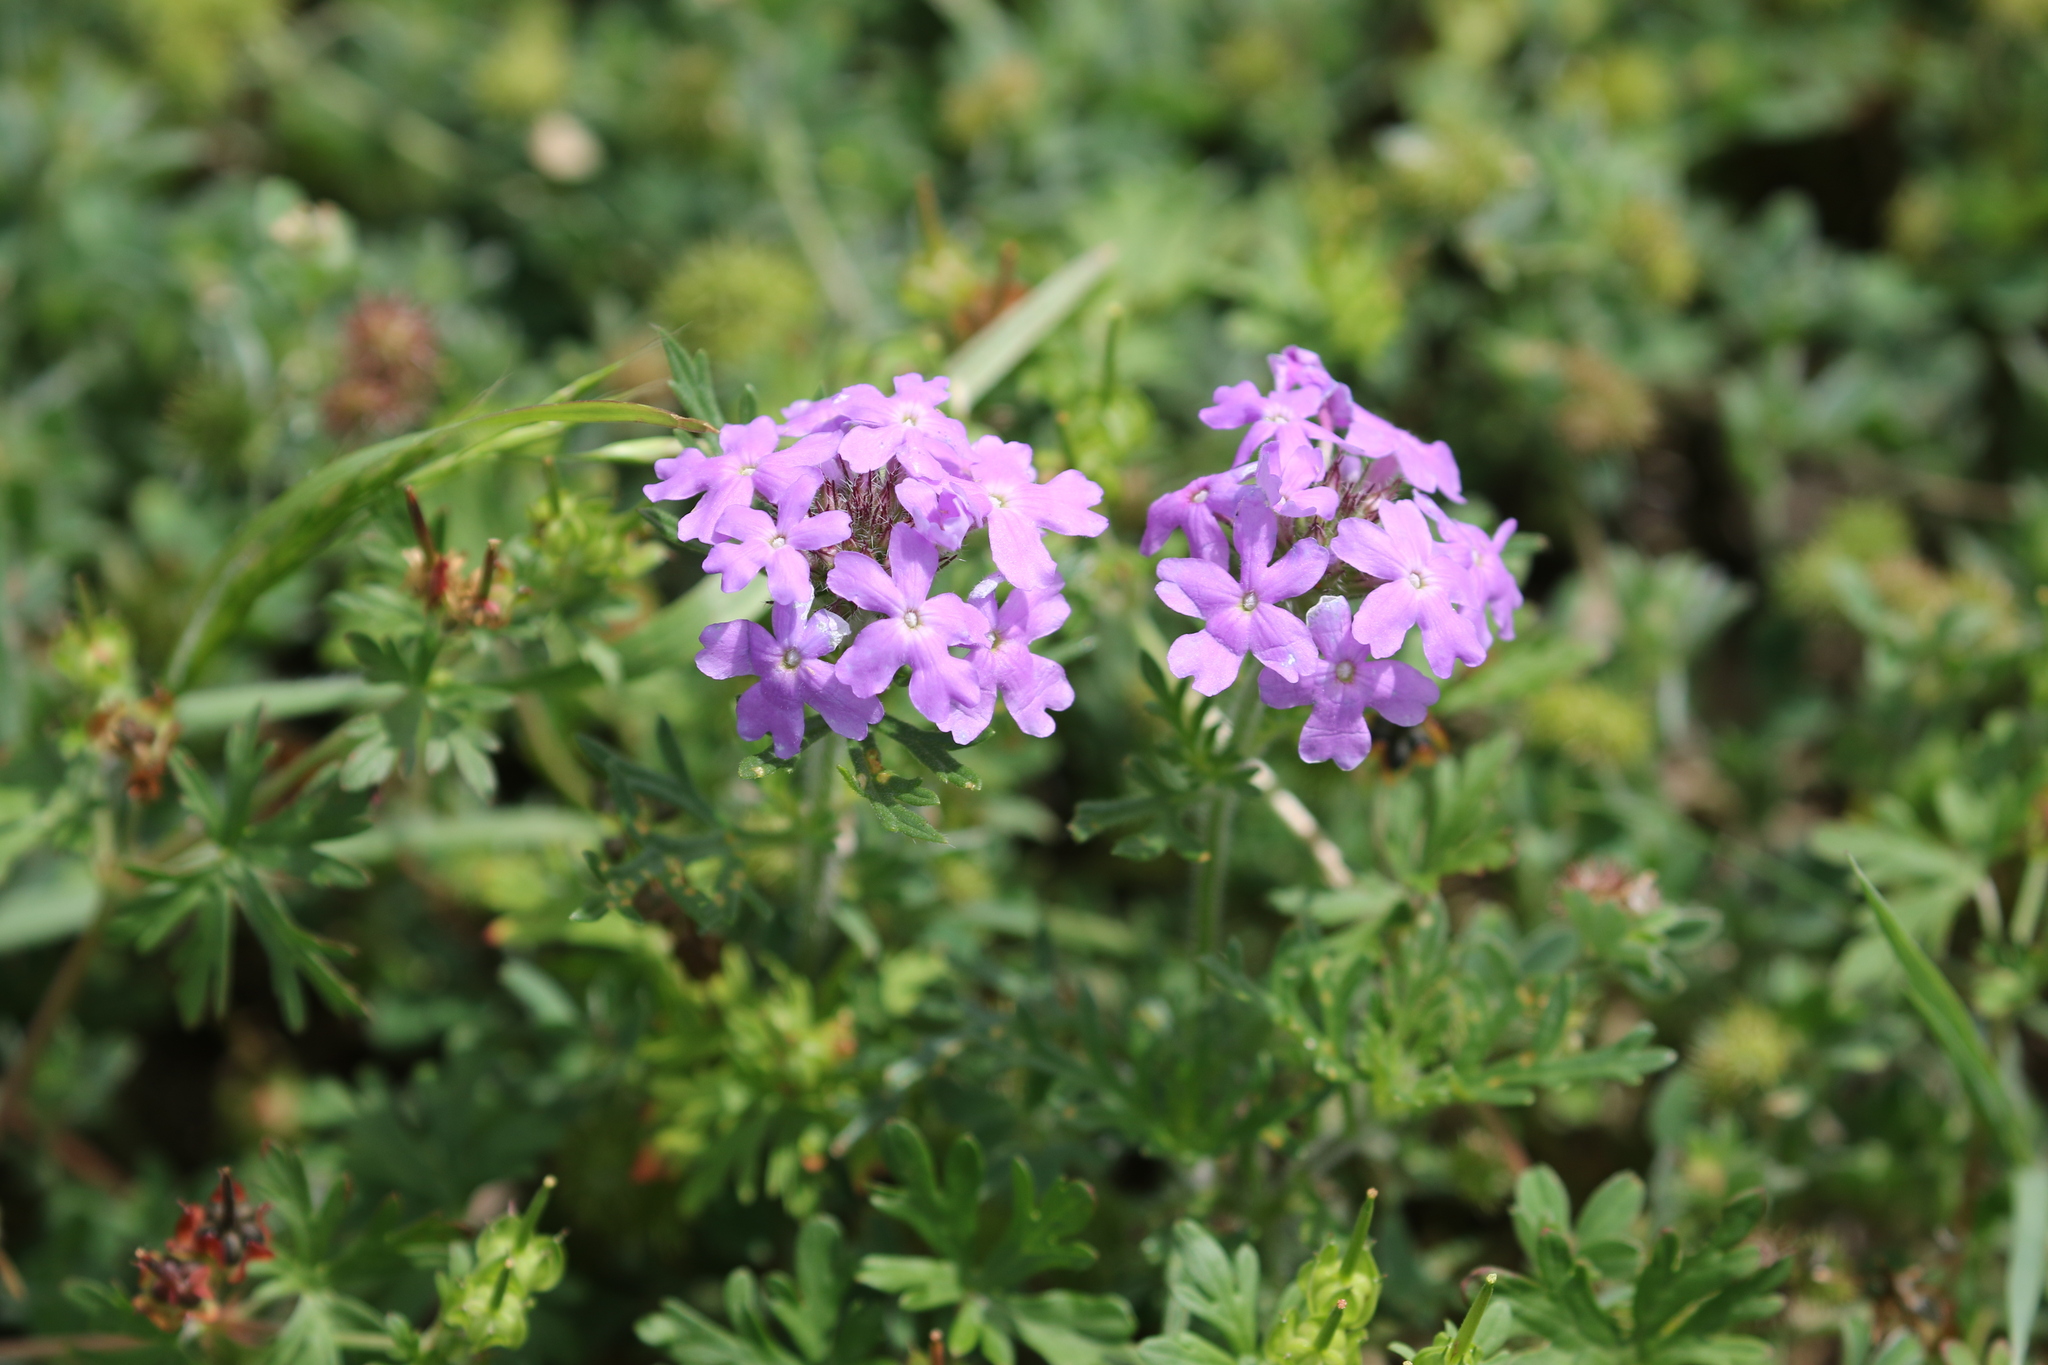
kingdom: Plantae
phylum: Tracheophyta
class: Magnoliopsida
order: Lamiales
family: Verbenaceae
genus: Verbena
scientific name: Verbena bipinnatifida
